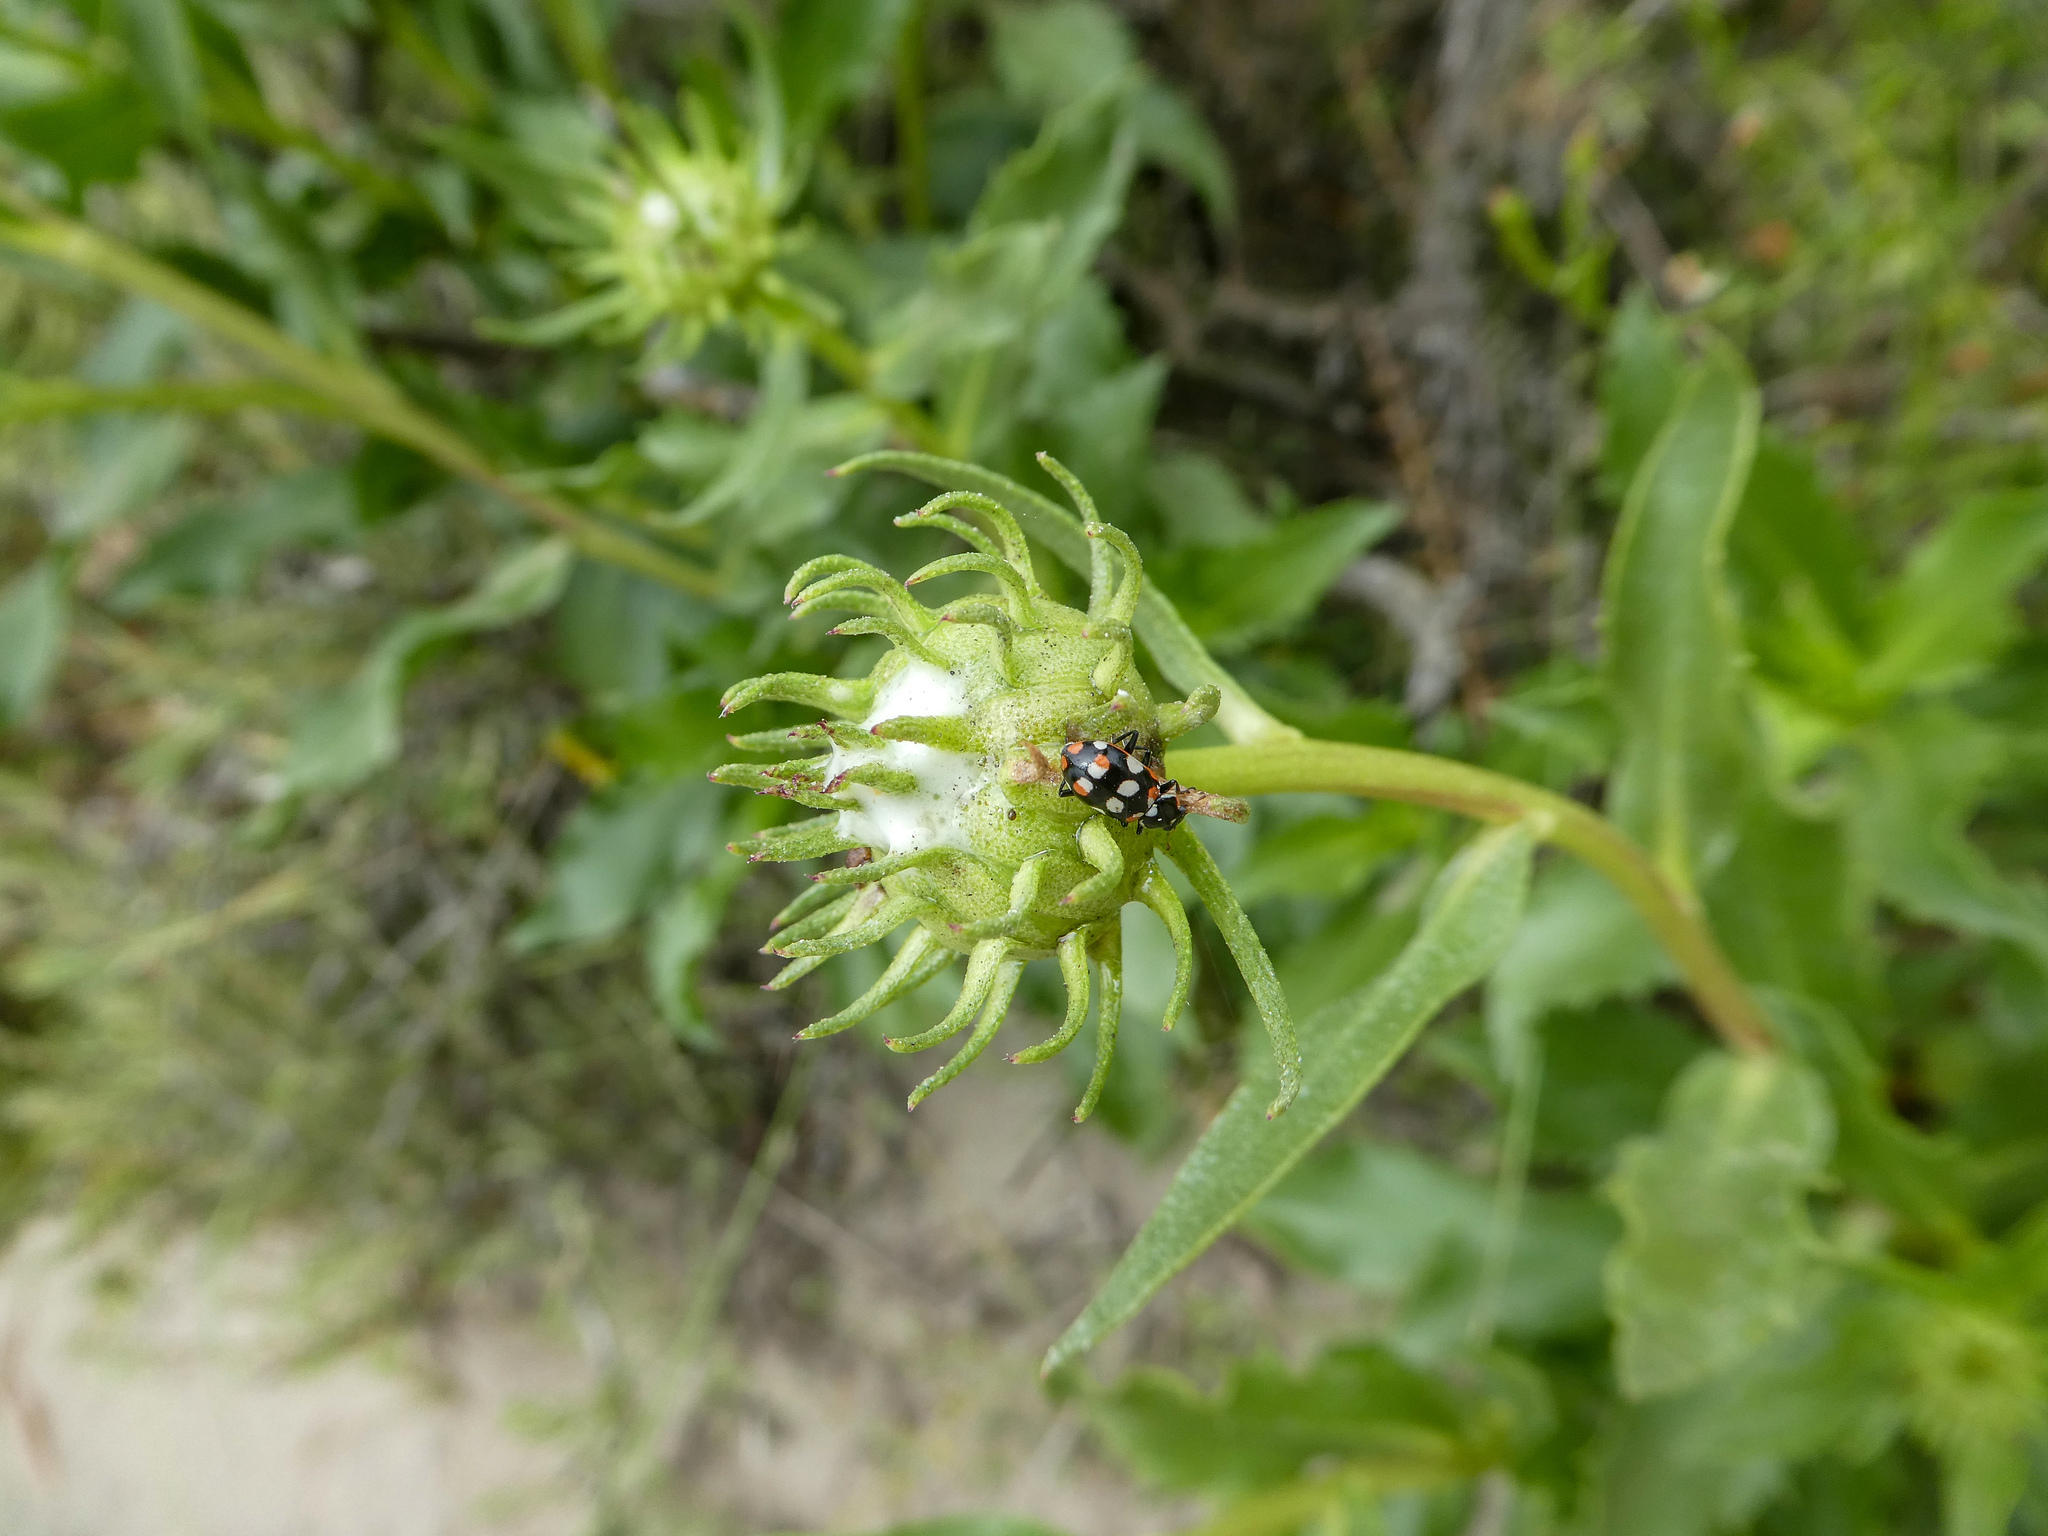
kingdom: Animalia
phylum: Arthropoda
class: Insecta
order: Coleoptera
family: Coccinellidae
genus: Eriopis
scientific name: Eriopis connexa
